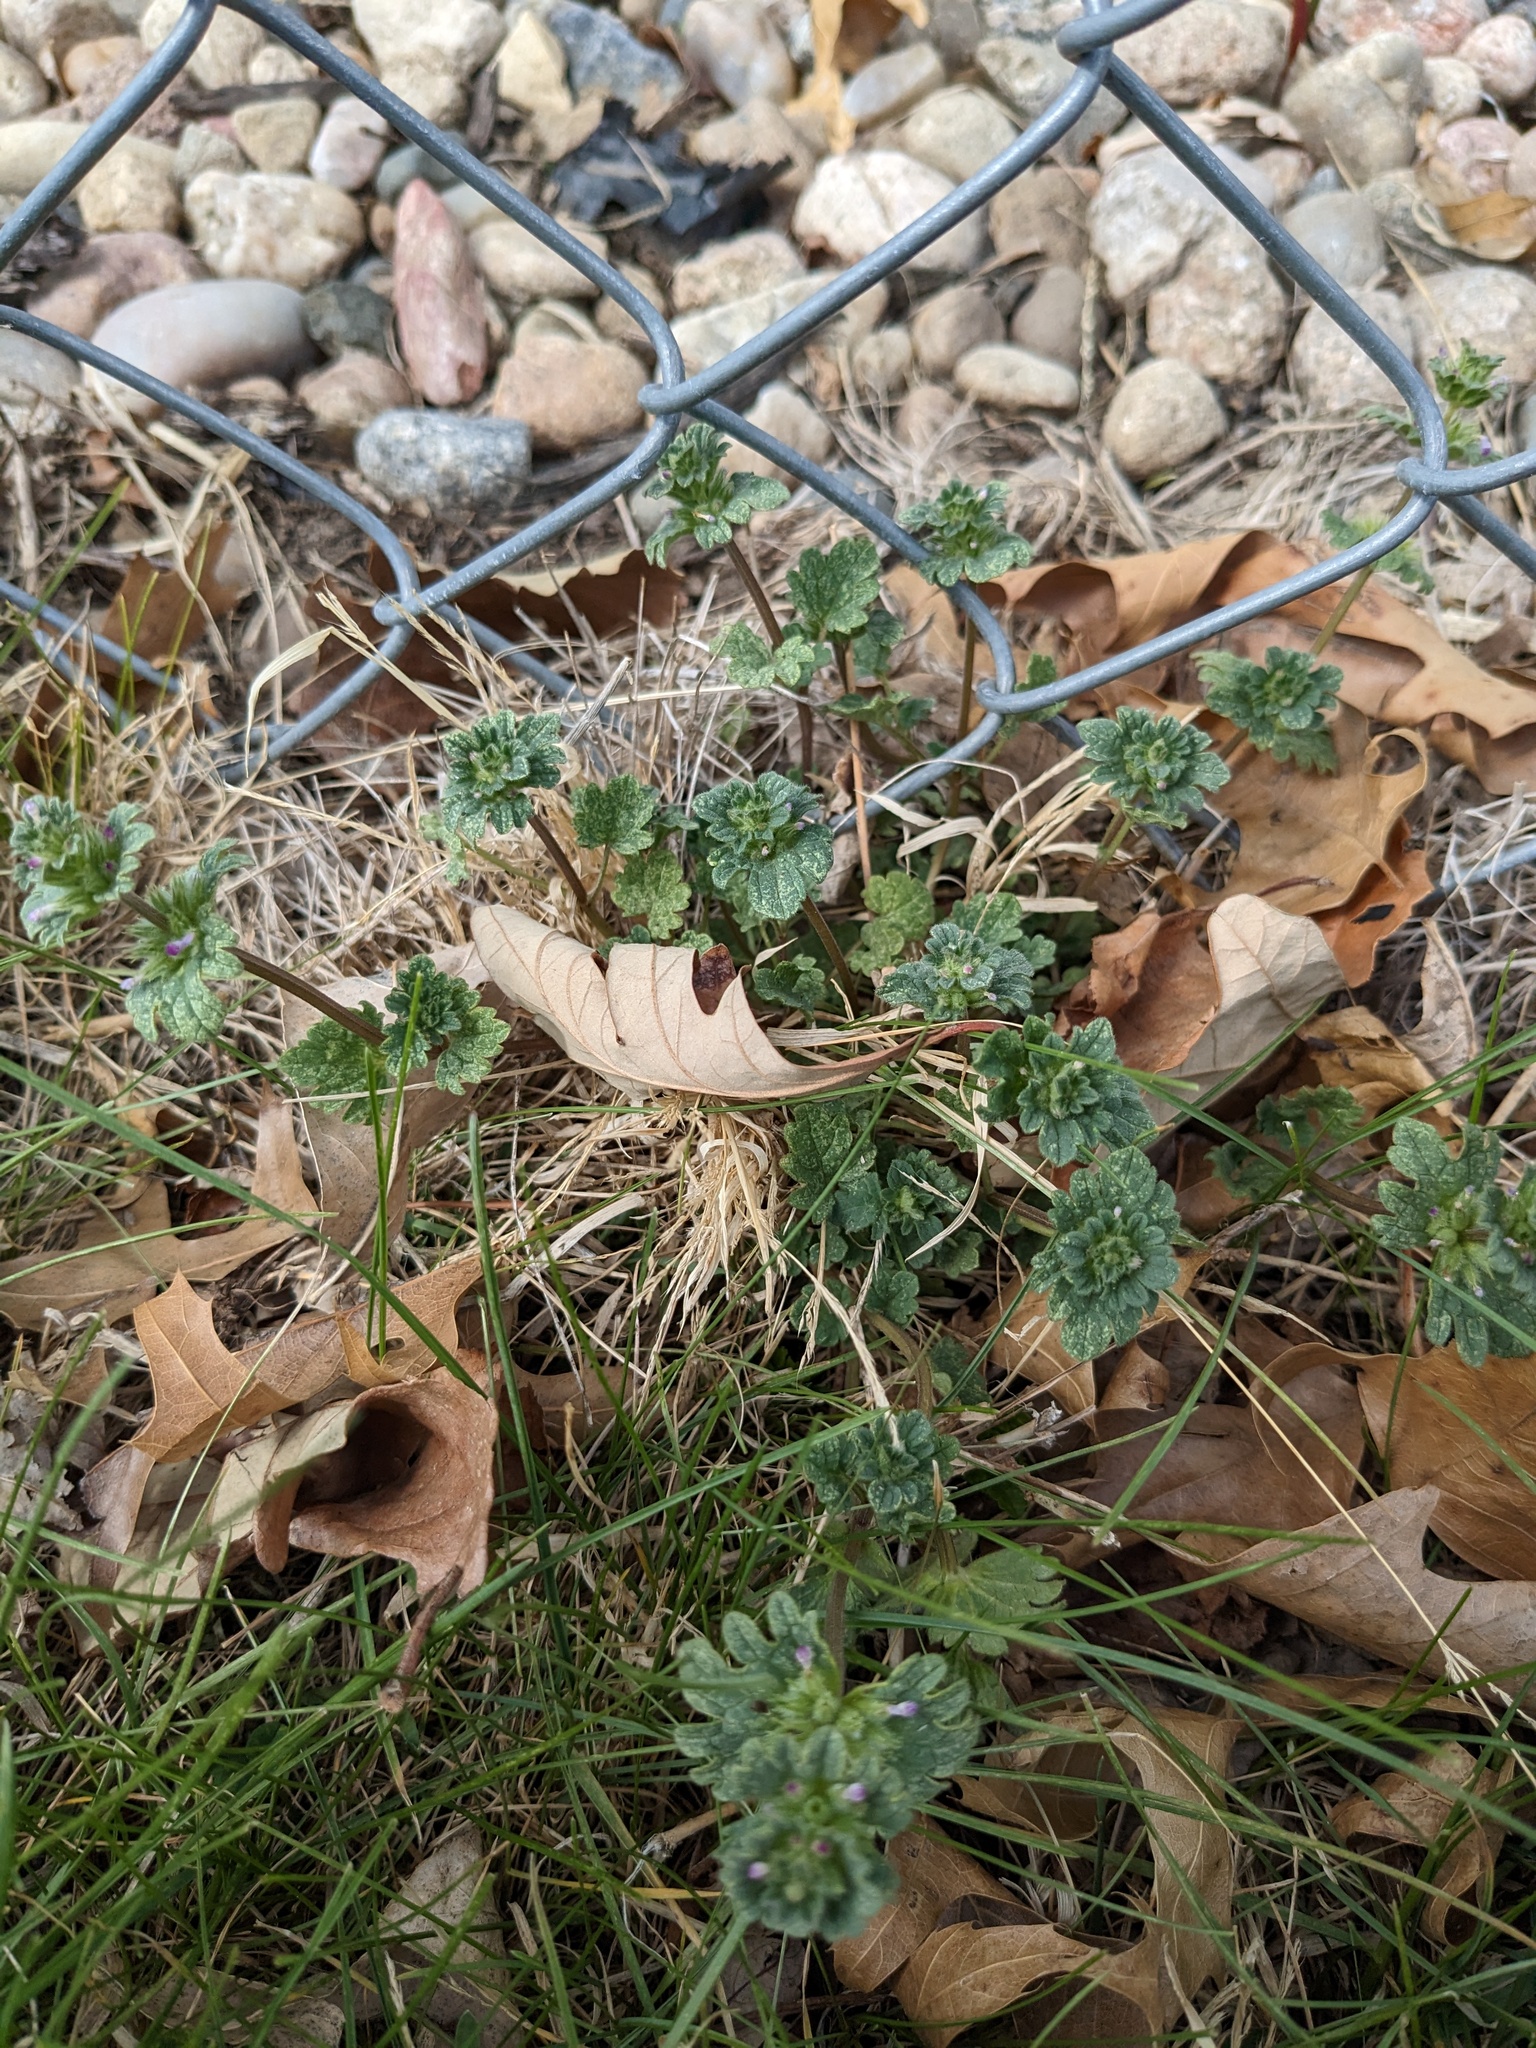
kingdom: Plantae
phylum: Tracheophyta
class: Magnoliopsida
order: Lamiales
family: Lamiaceae
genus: Lamium
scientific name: Lamium amplexicaule
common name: Henbit dead-nettle
